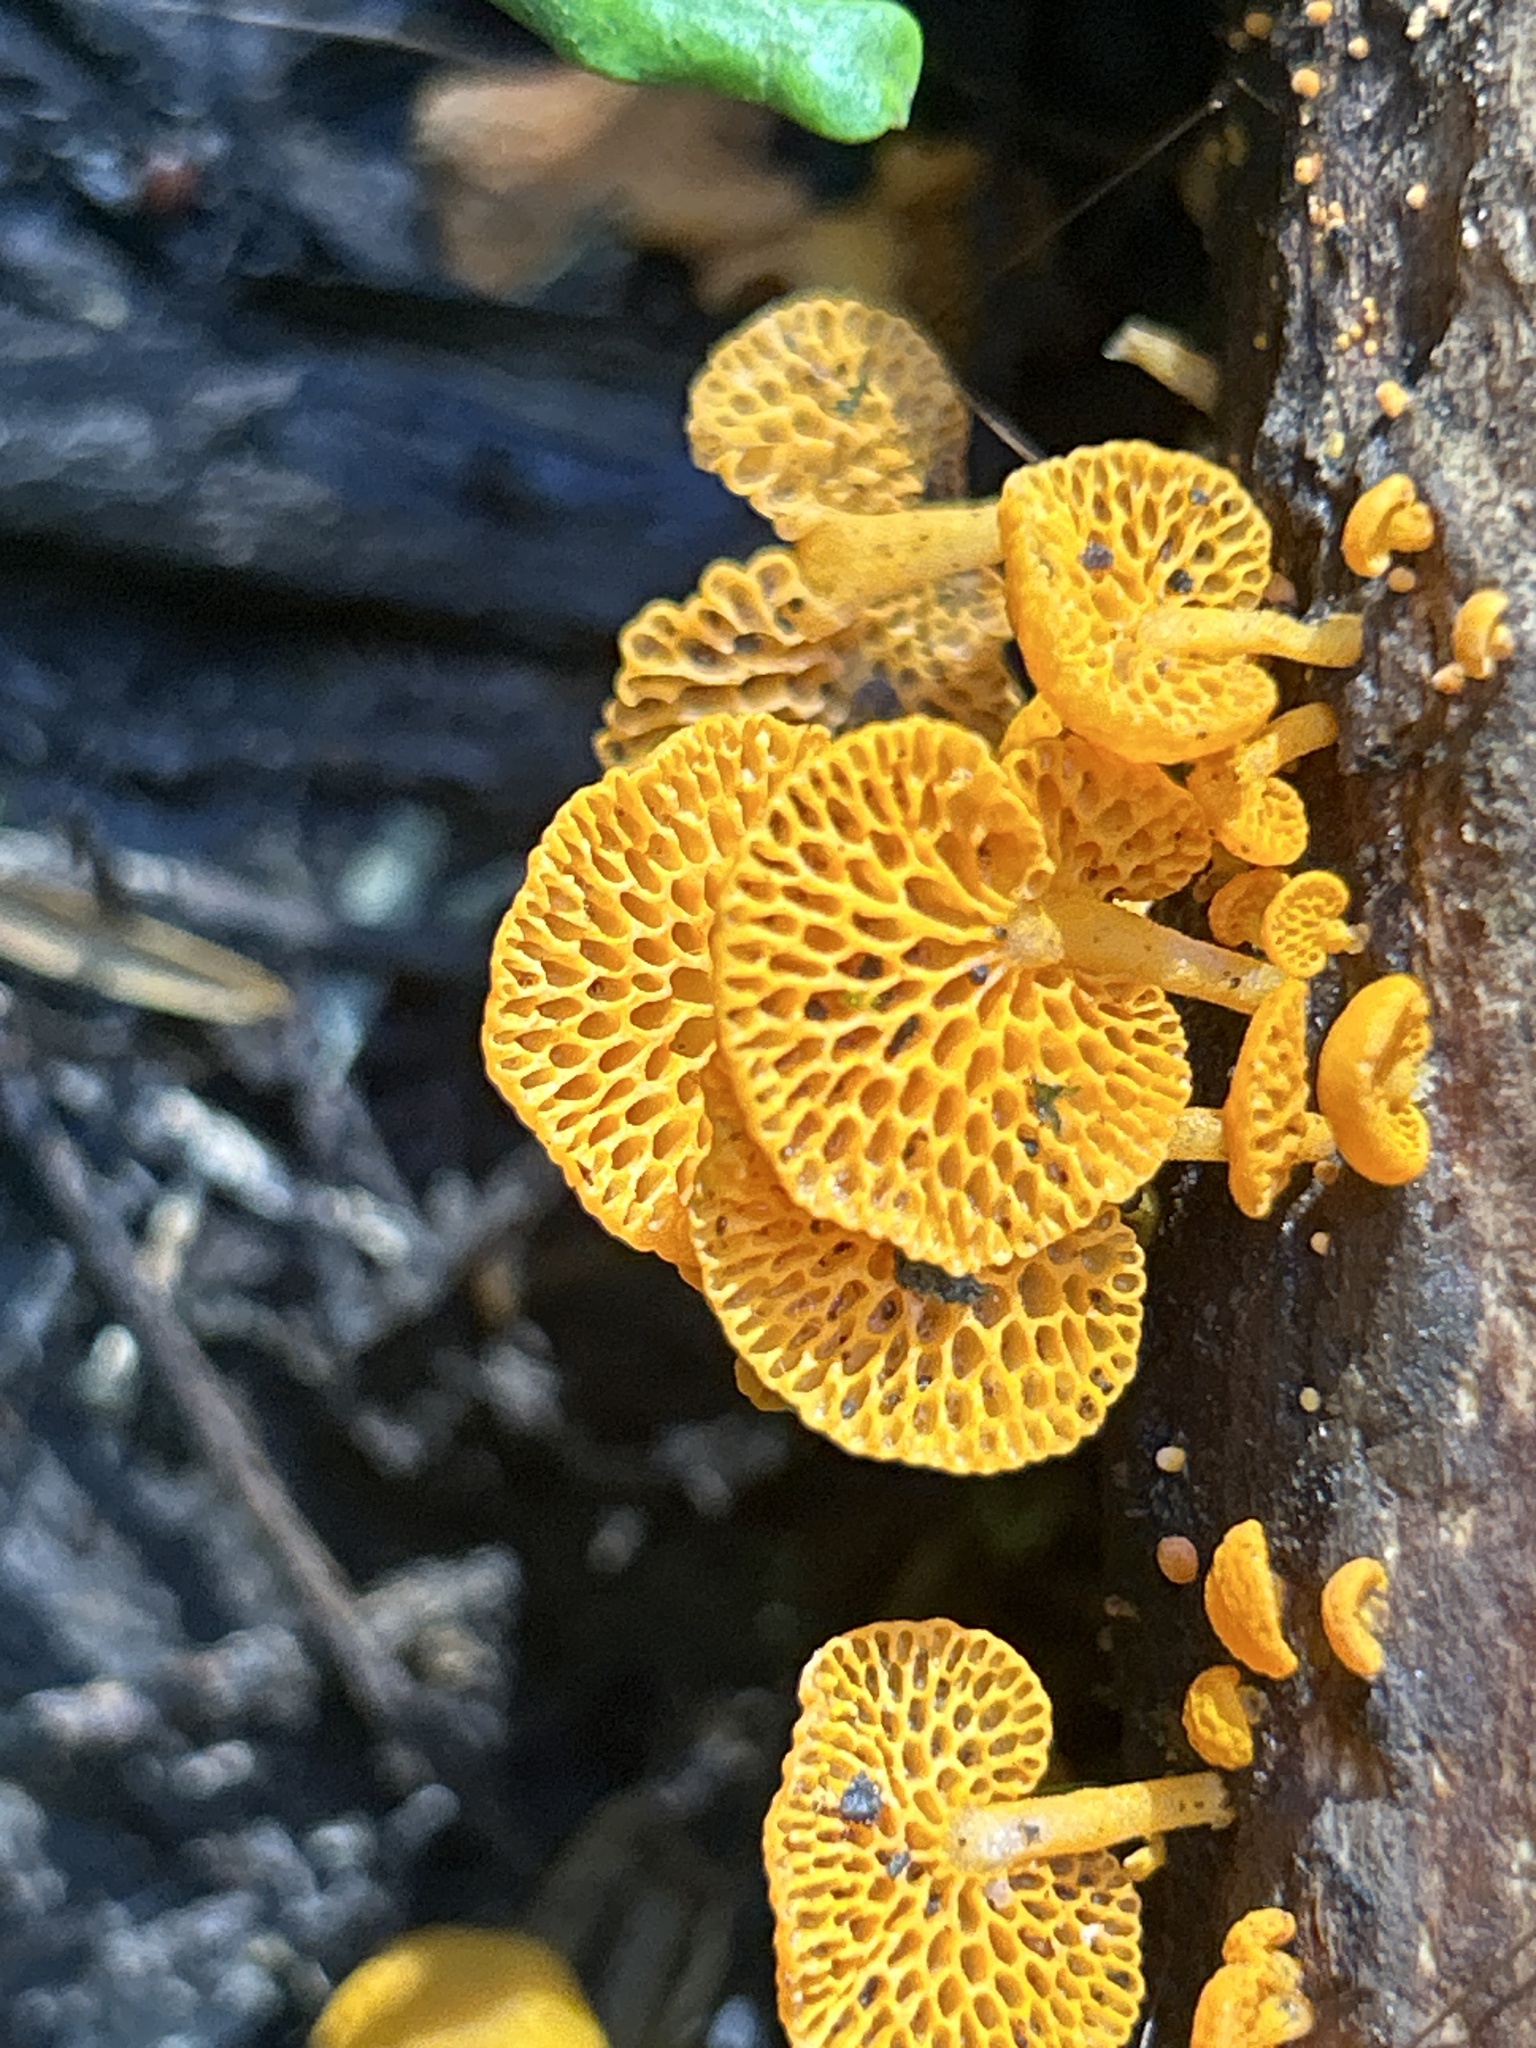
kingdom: Fungi
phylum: Basidiomycota
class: Agaricomycetes
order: Agaricales
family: Mycenaceae
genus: Favolaschia
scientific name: Favolaschia claudopus
